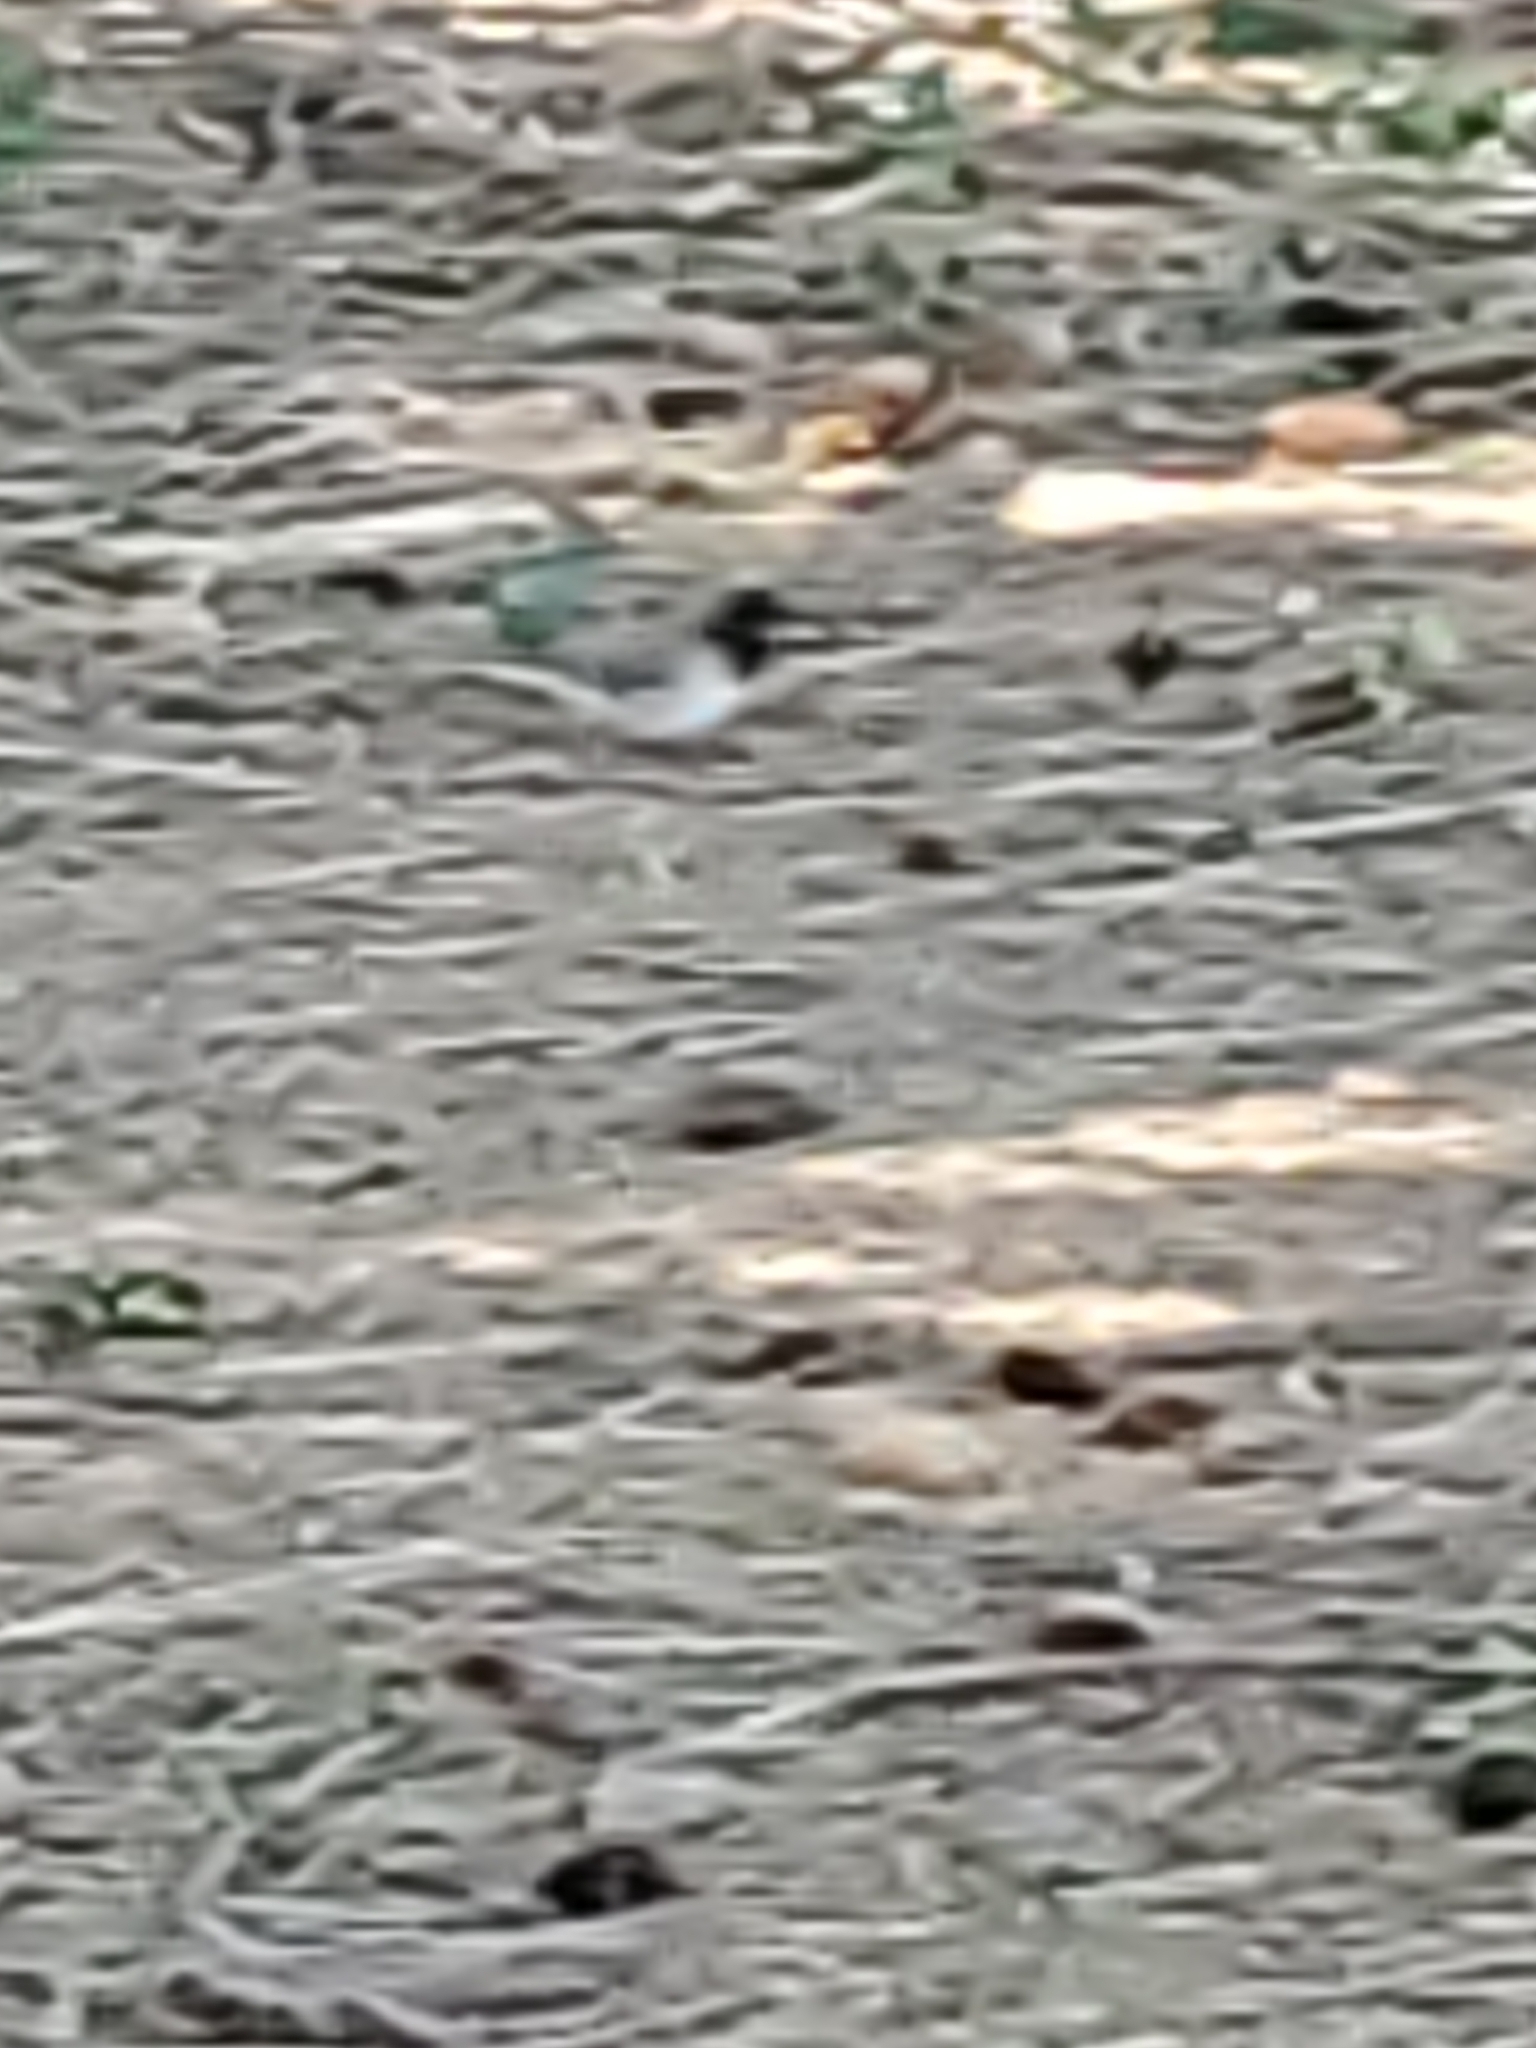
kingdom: Animalia
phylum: Chordata
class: Aves
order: Passeriformes
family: Passerellidae
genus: Junco
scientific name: Junco hyemalis
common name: Dark-eyed junco
